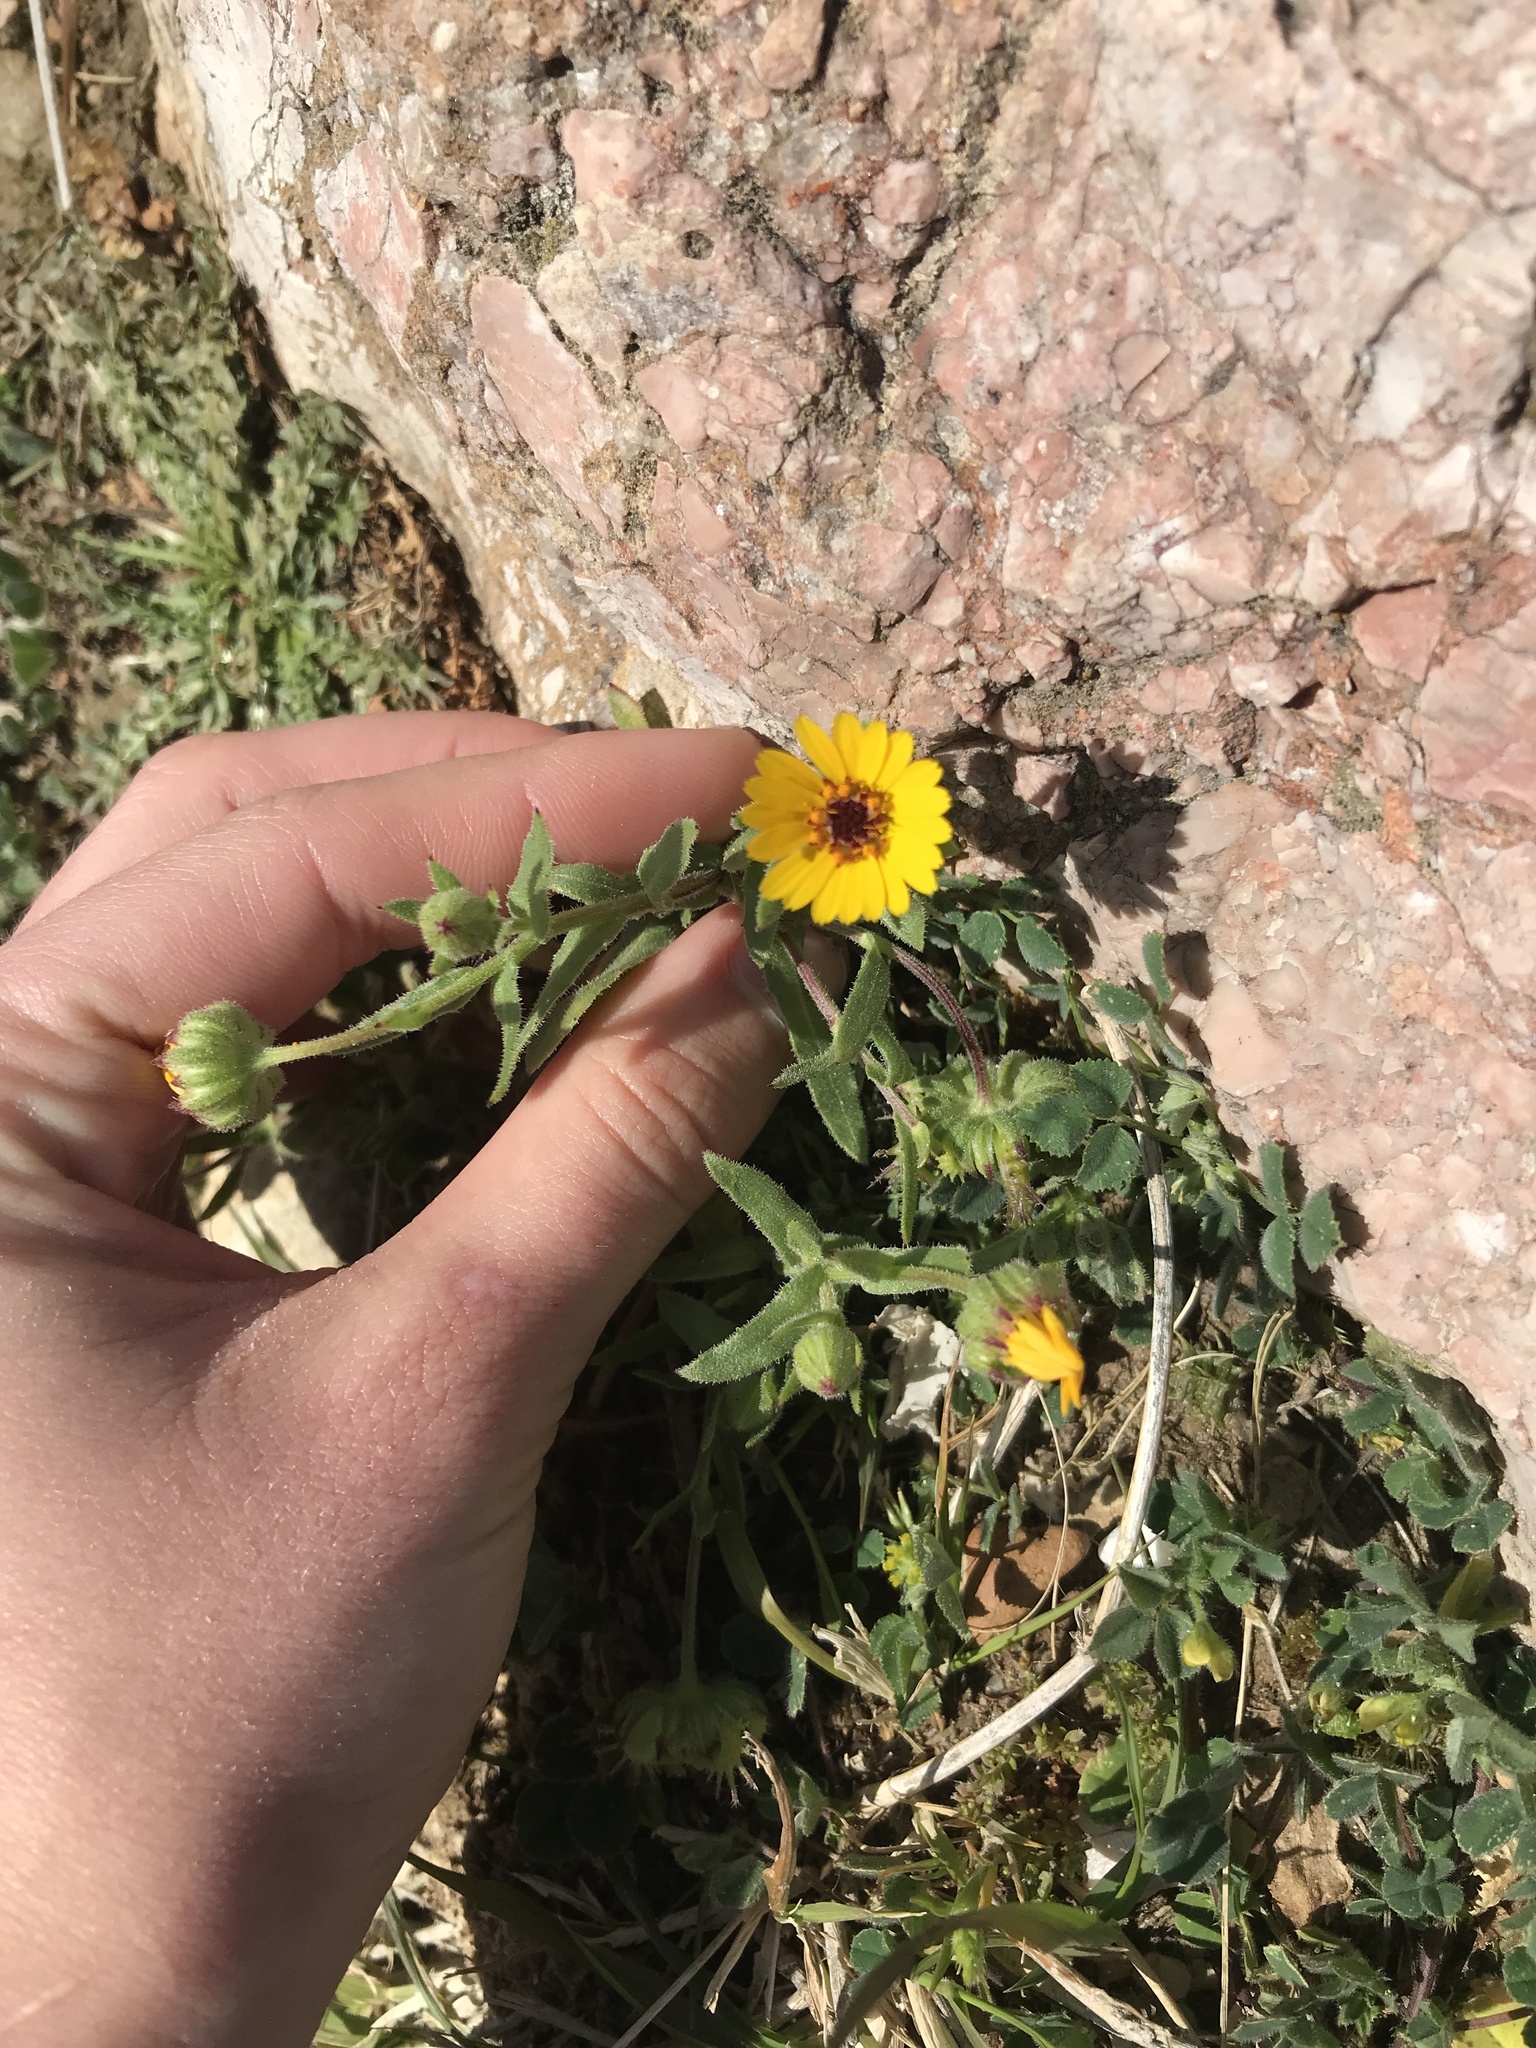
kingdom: Plantae
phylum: Tracheophyta
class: Magnoliopsida
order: Asterales
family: Asteraceae
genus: Calendula
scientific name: Calendula arvensis
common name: Field marigold
